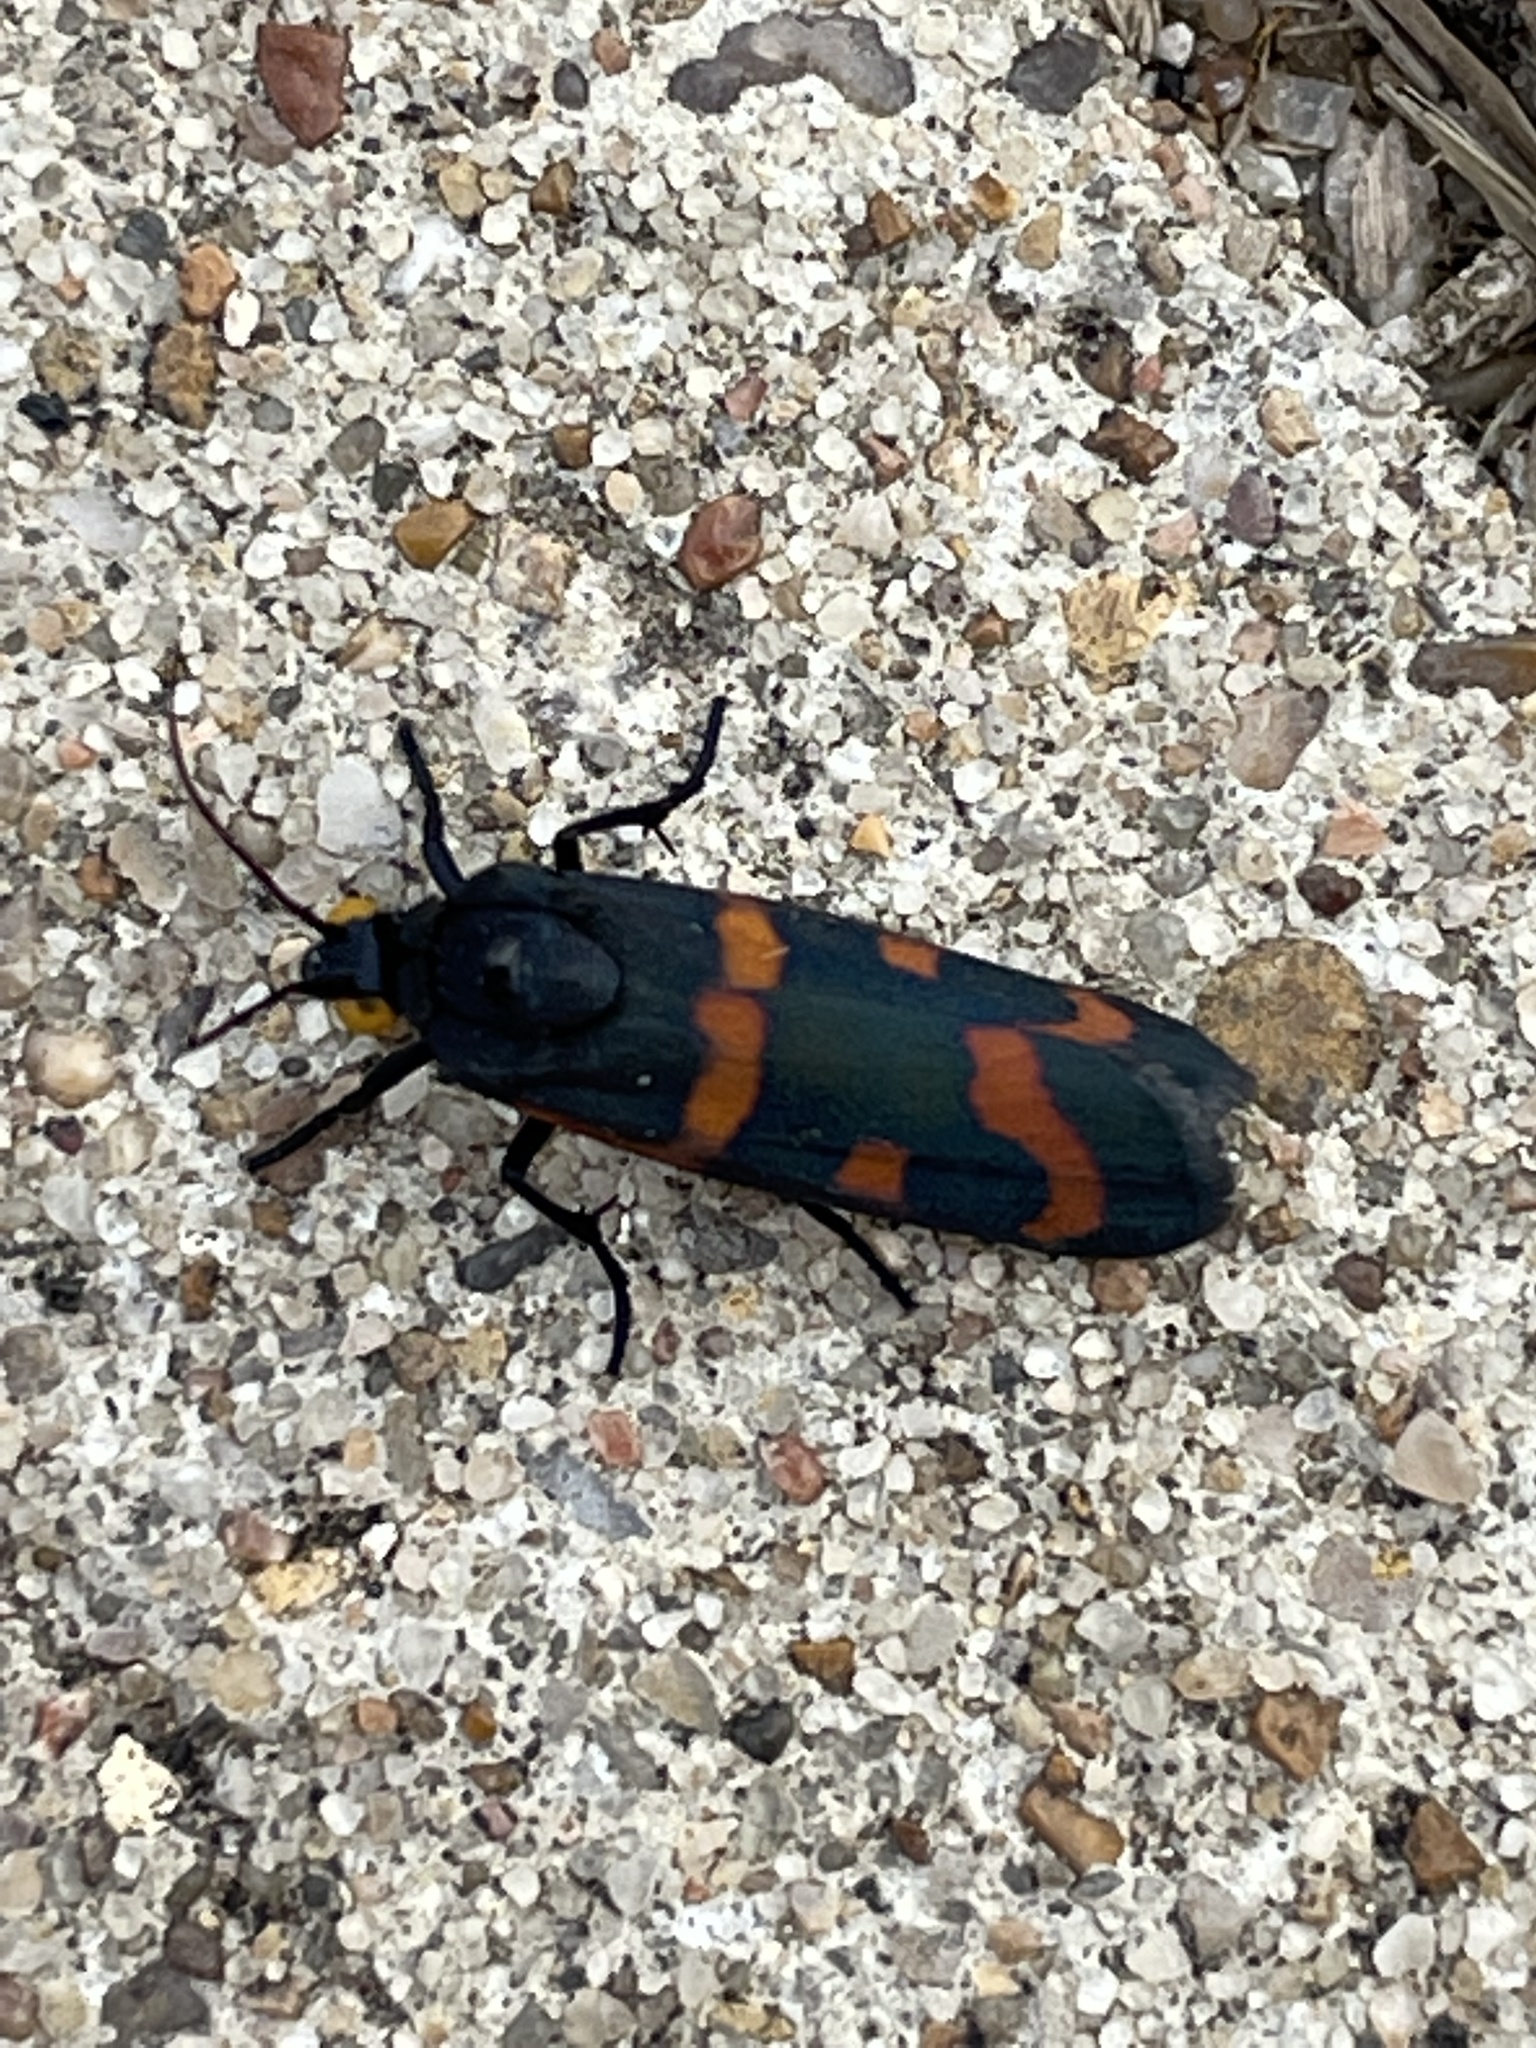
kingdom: Animalia
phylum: Arthropoda
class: Insecta
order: Lepidoptera
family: Noctuidae
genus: Cydosia
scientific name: Cydosia aurivitta
